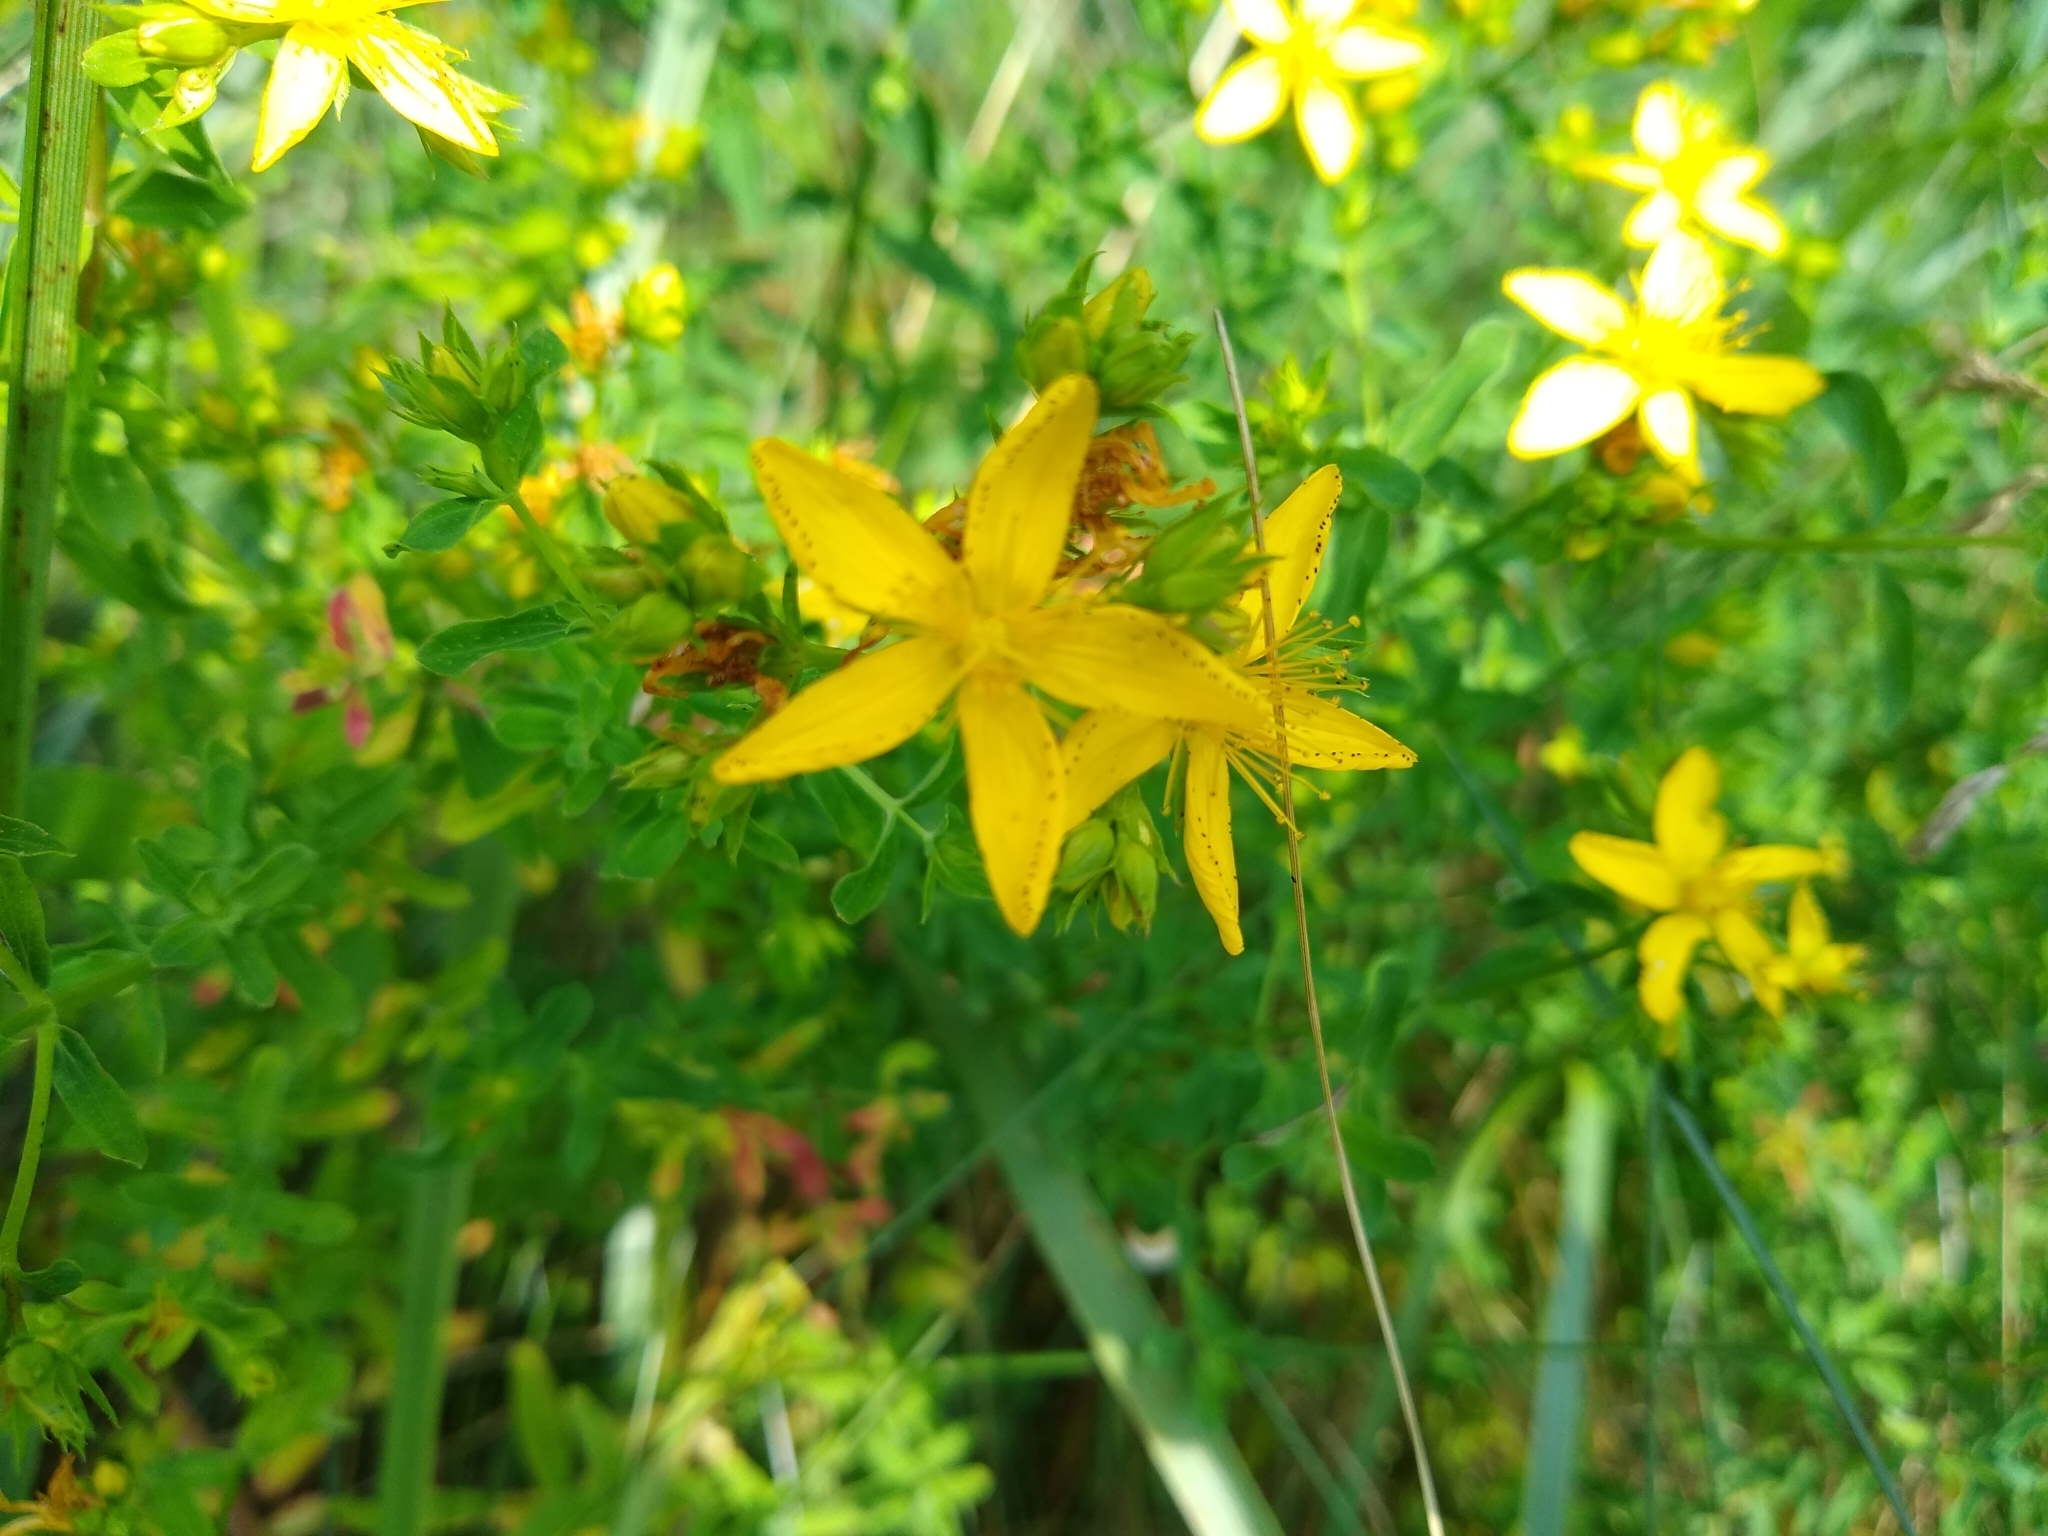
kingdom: Plantae
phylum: Tracheophyta
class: Magnoliopsida
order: Malpighiales
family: Hypericaceae
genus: Hypericum
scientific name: Hypericum perforatum
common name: Common st. johnswort
